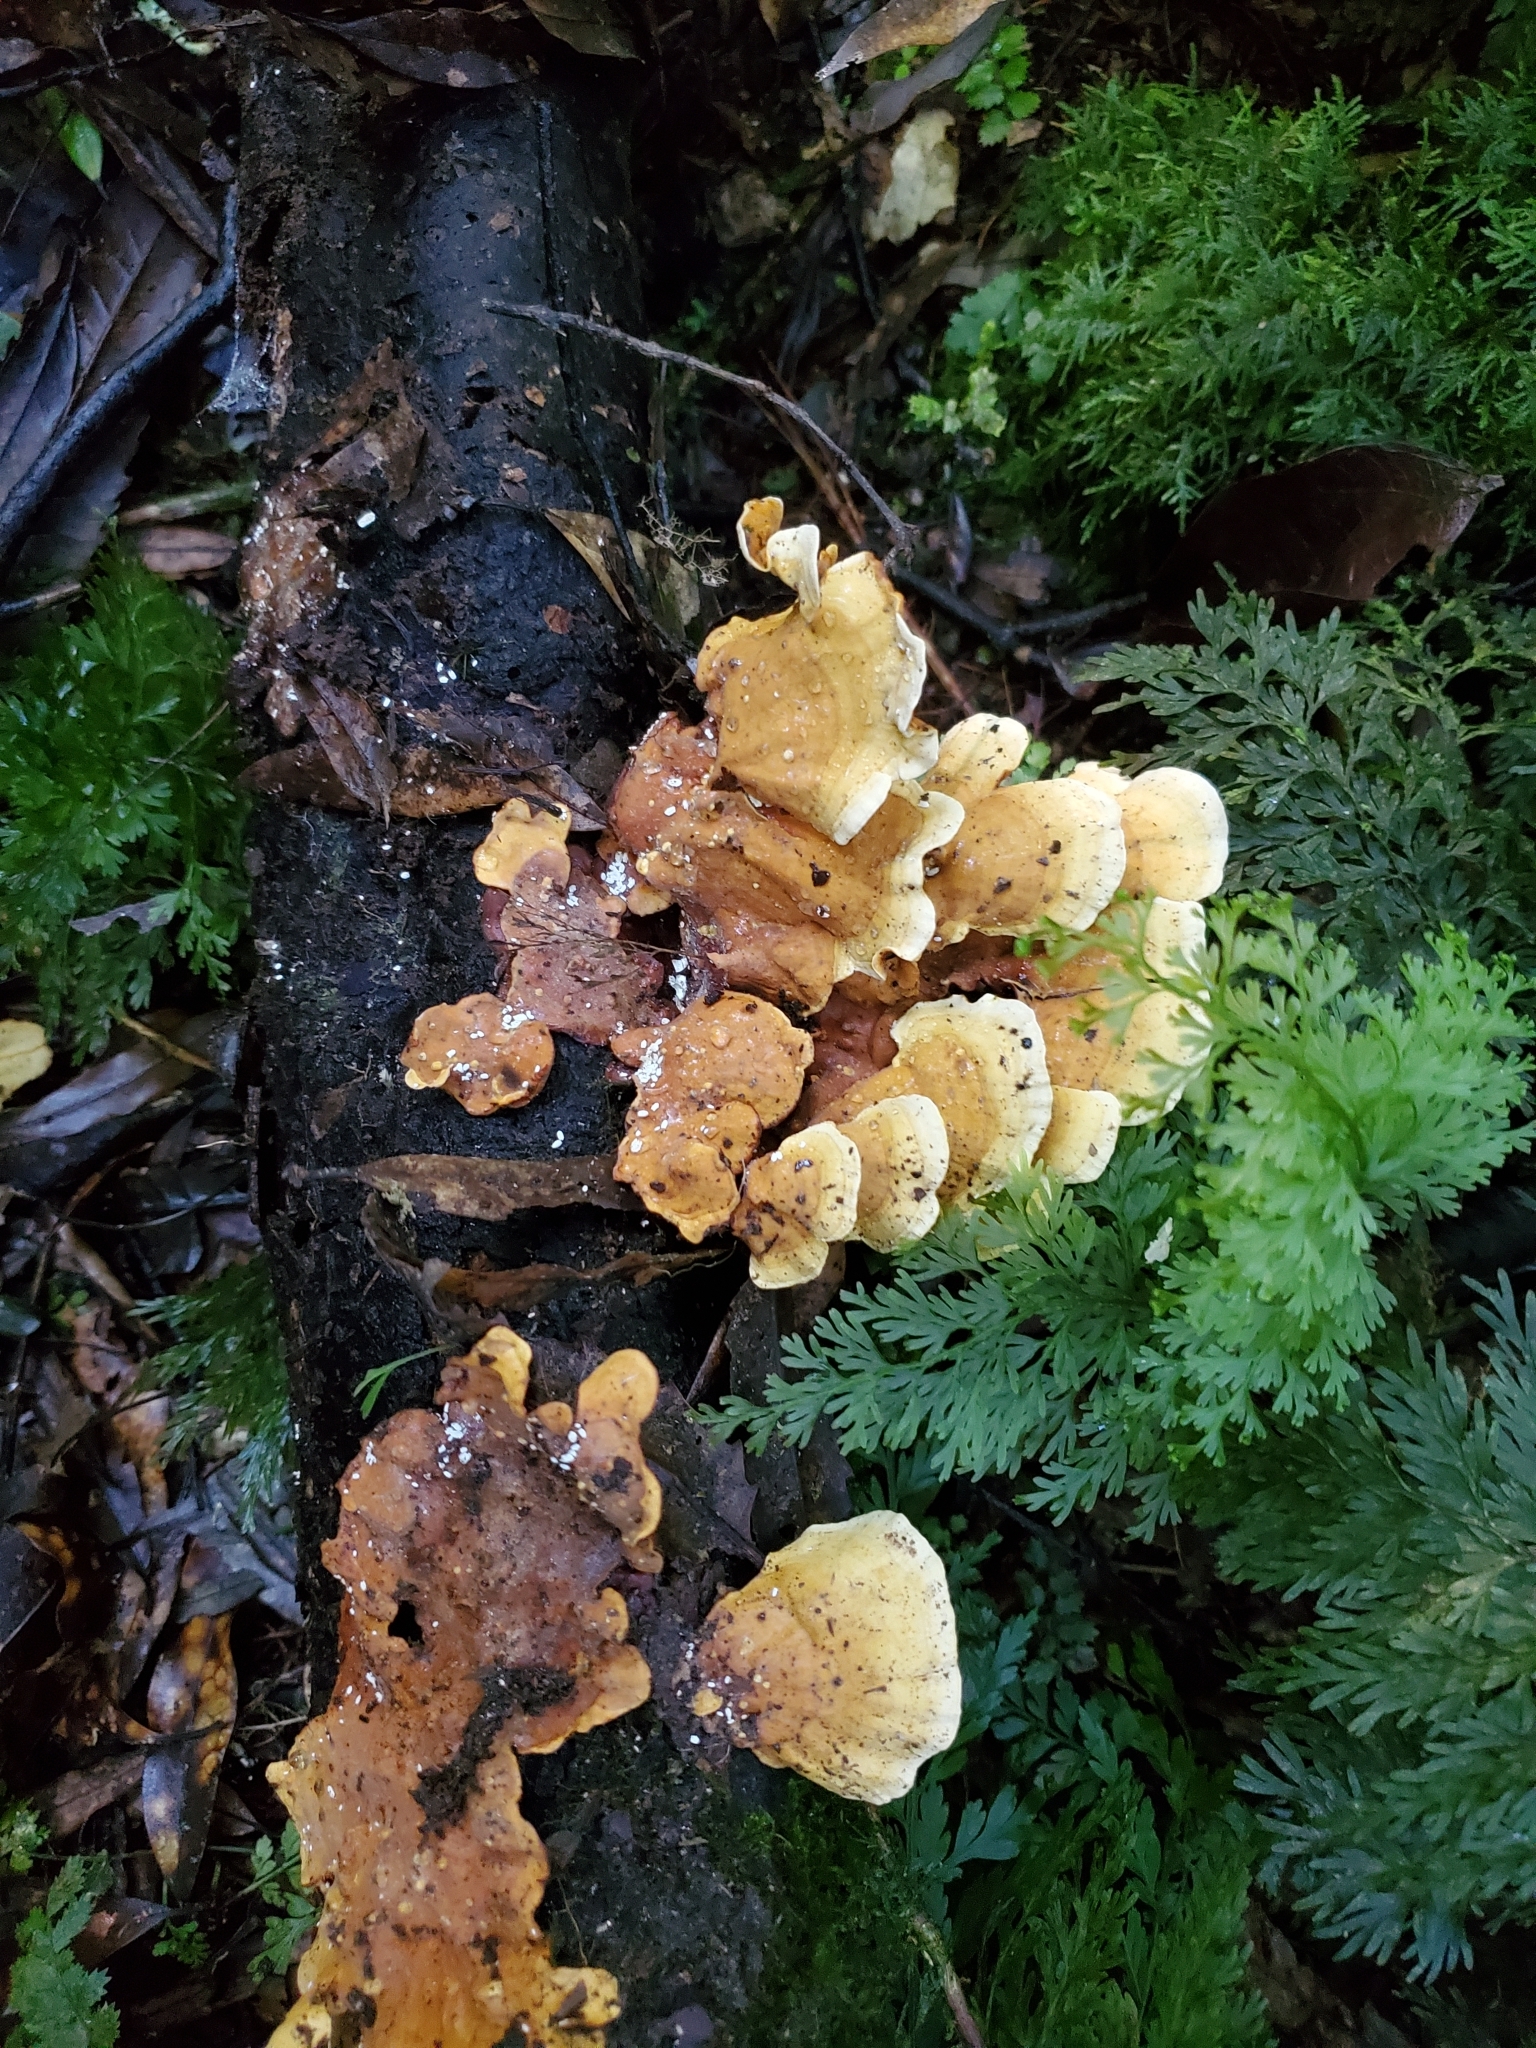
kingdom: Fungi
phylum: Basidiomycota
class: Agaricomycetes
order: Russulales
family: Stereaceae
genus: Stereum
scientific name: Stereum versicolor
